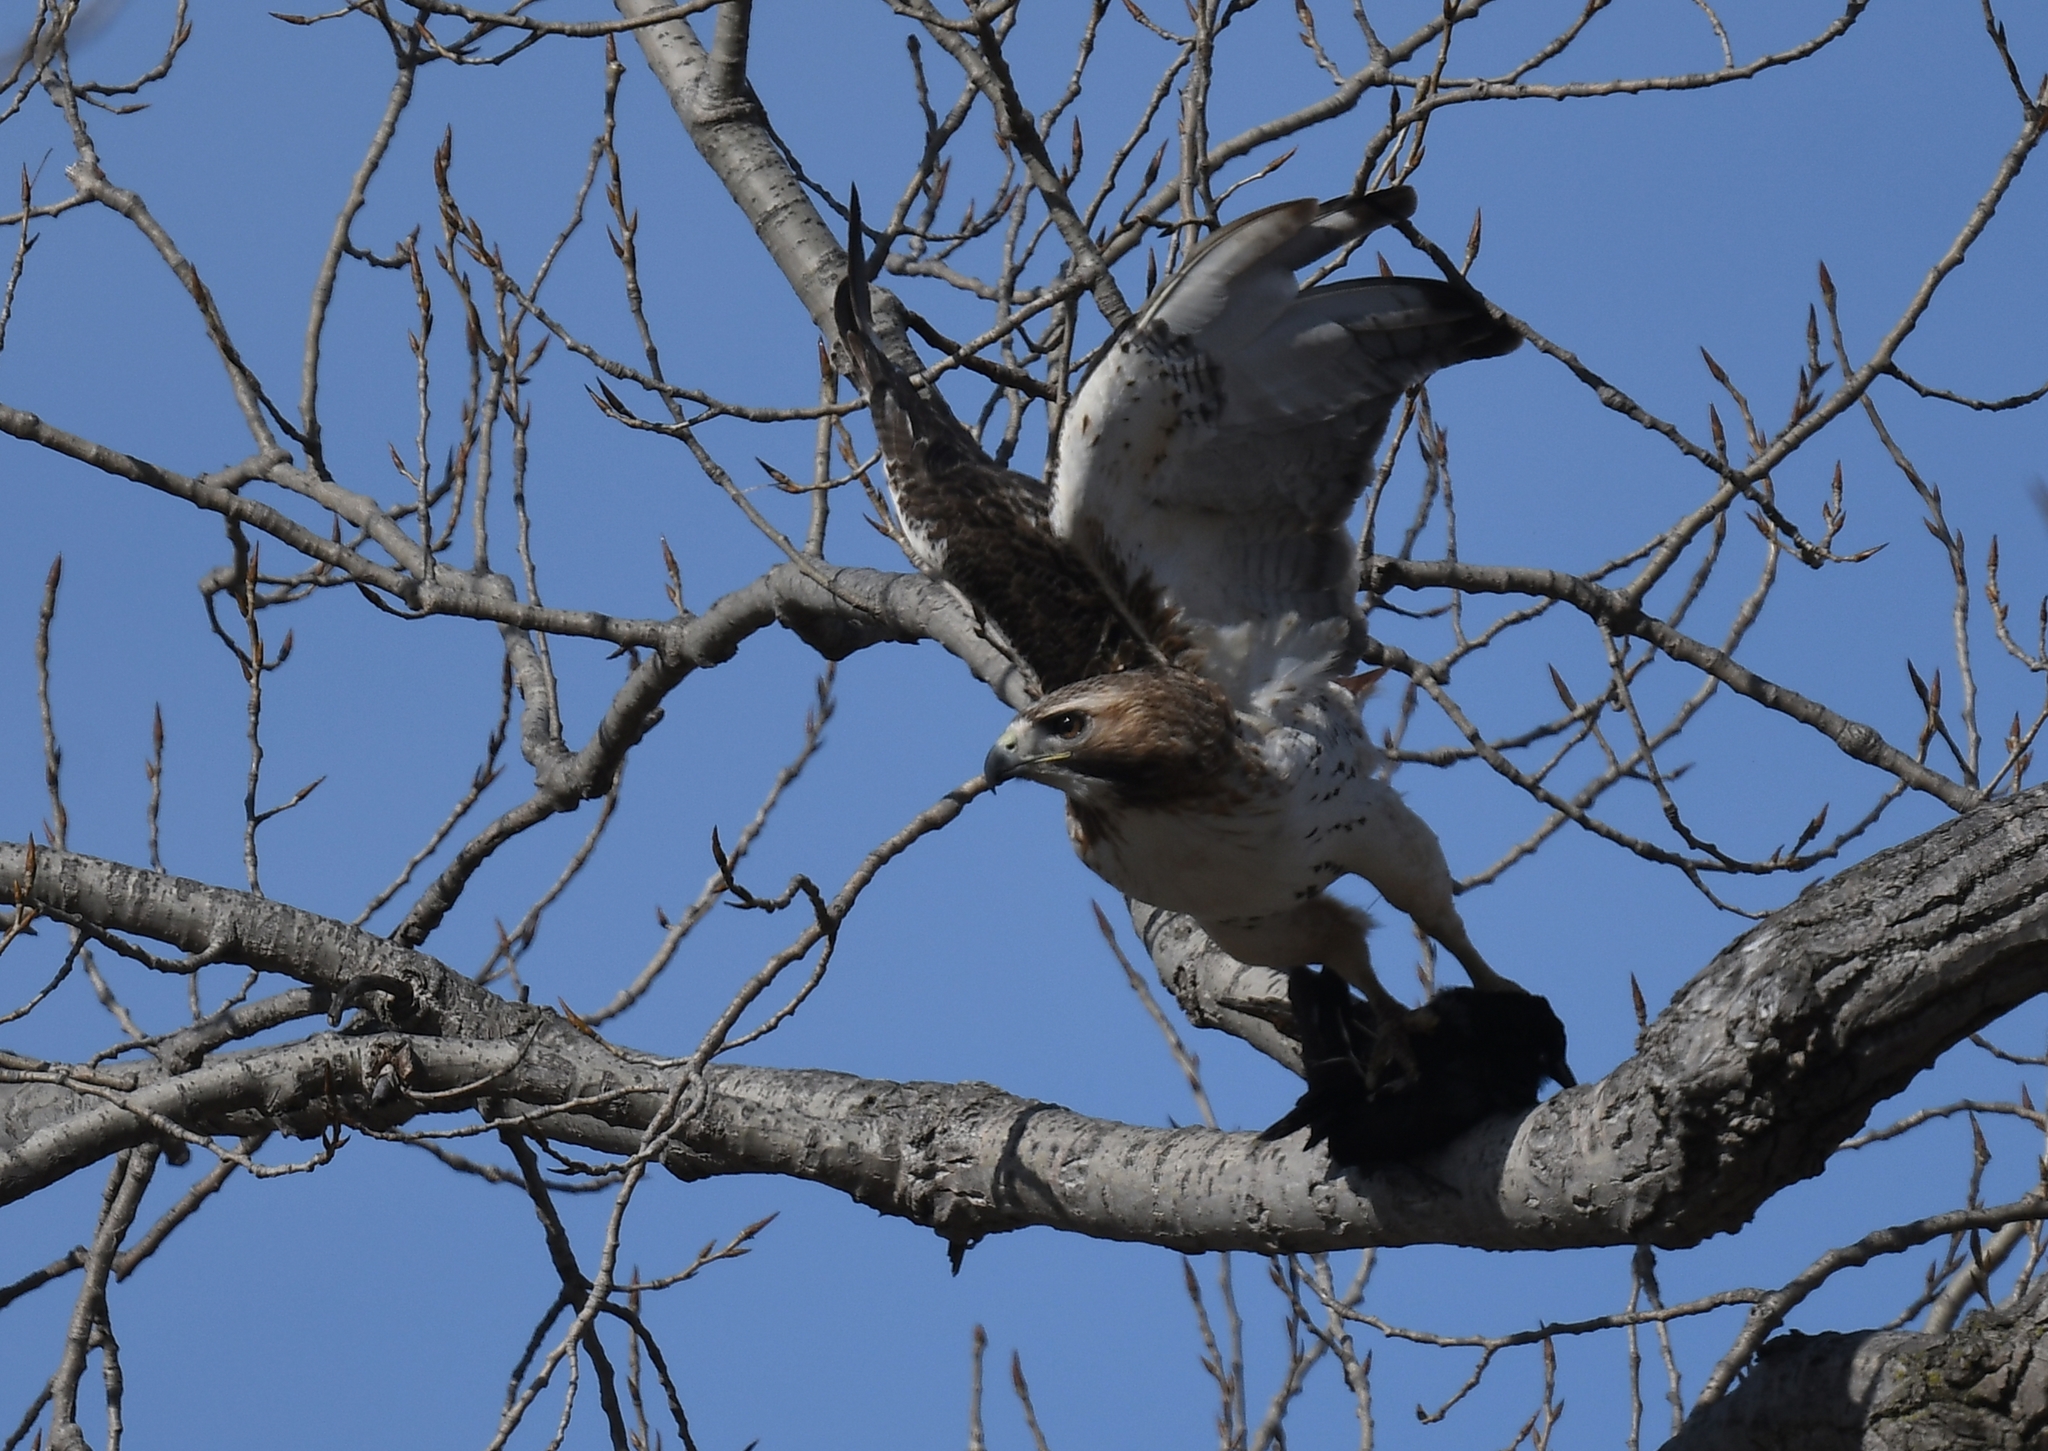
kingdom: Animalia
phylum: Chordata
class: Aves
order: Accipitriformes
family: Accipitridae
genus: Buteo
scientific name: Buteo jamaicensis
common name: Red-tailed hawk
